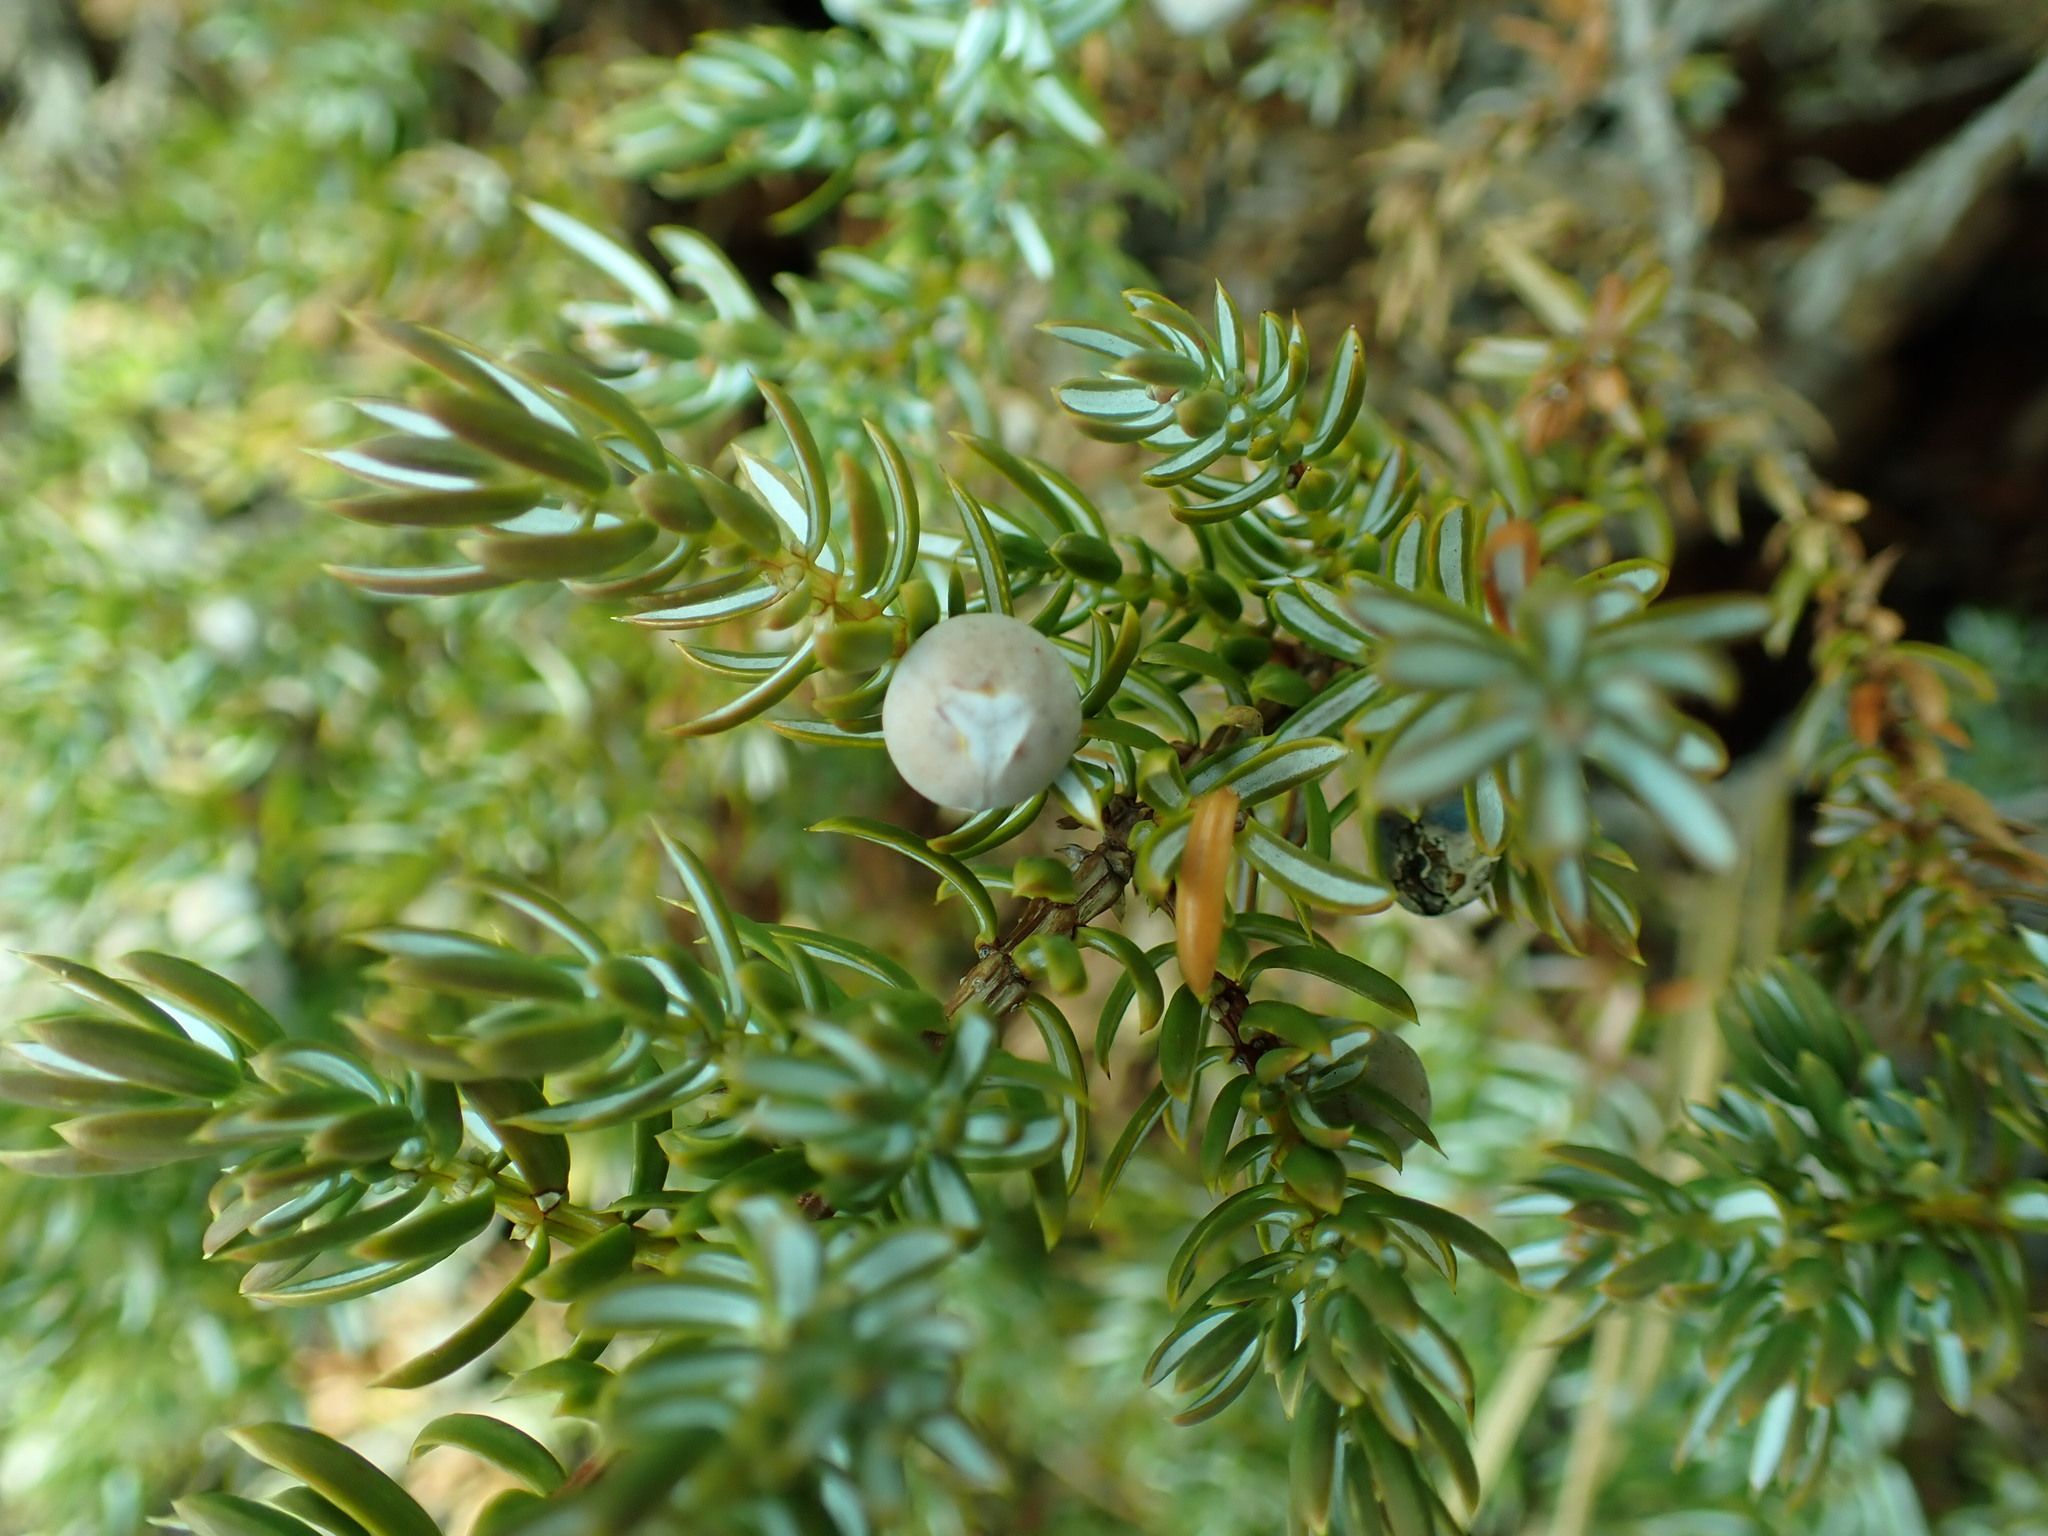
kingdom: Plantae
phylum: Tracheophyta
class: Pinopsida
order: Pinales
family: Cupressaceae
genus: Juniperus
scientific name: Juniperus communis
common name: Common juniper
